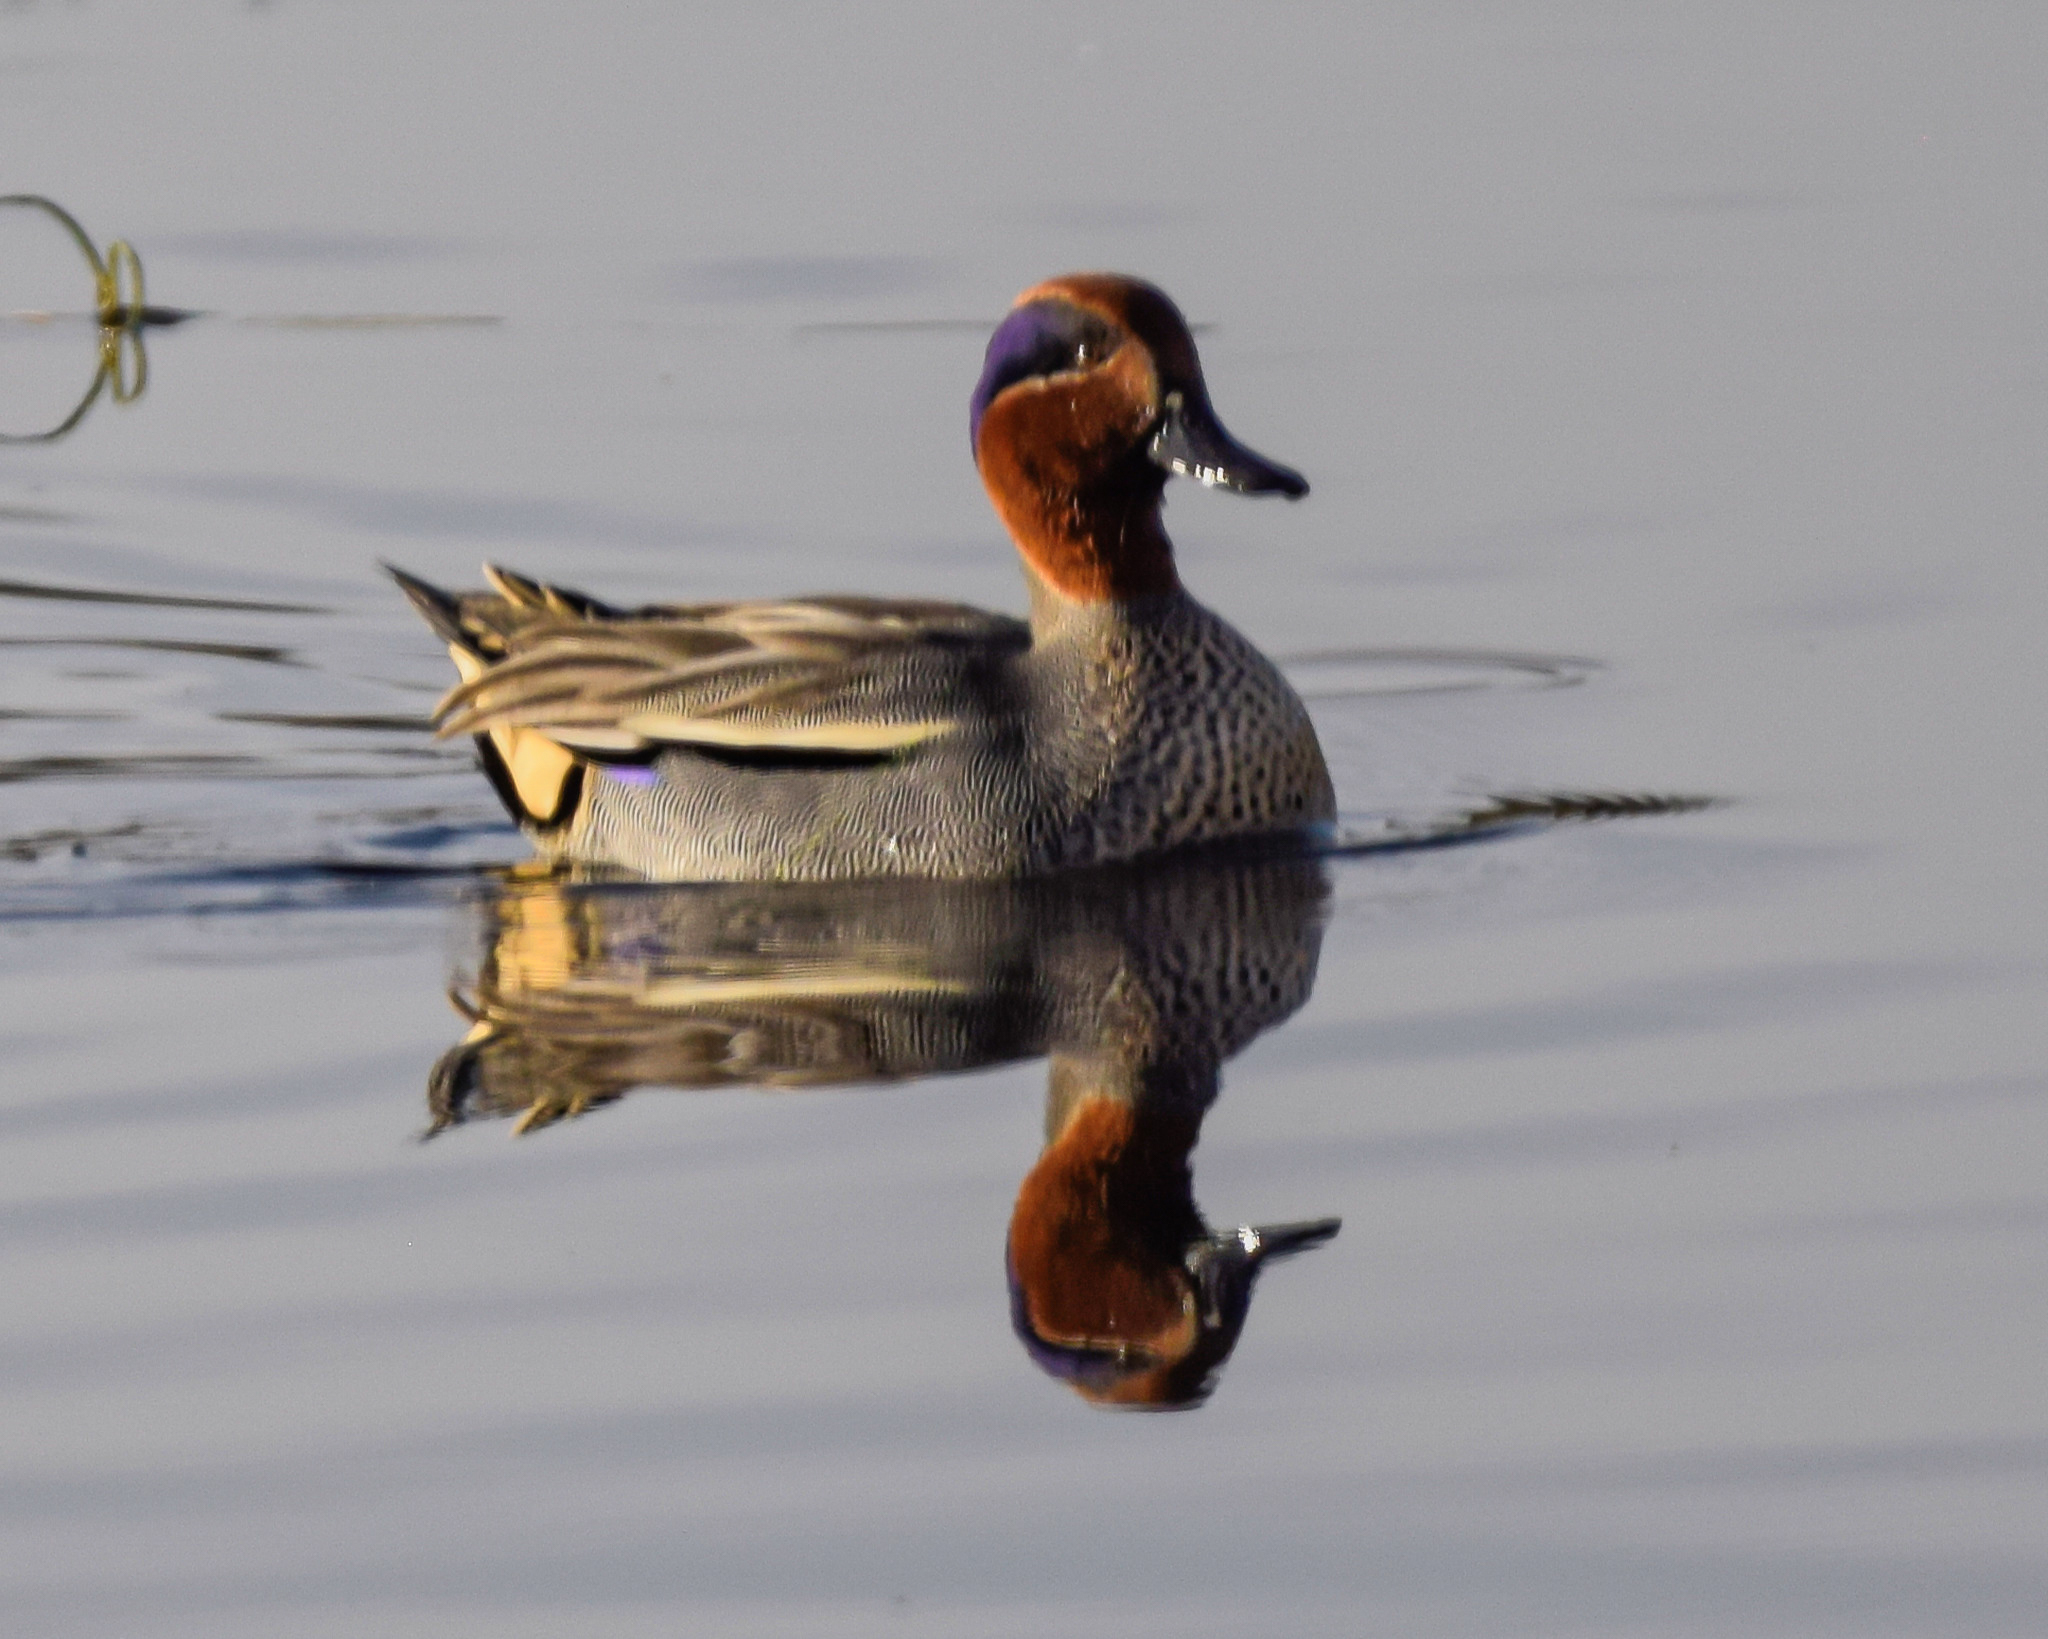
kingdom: Animalia
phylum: Chordata
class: Aves
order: Anseriformes
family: Anatidae
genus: Anas
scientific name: Anas crecca
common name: Eurasian teal
